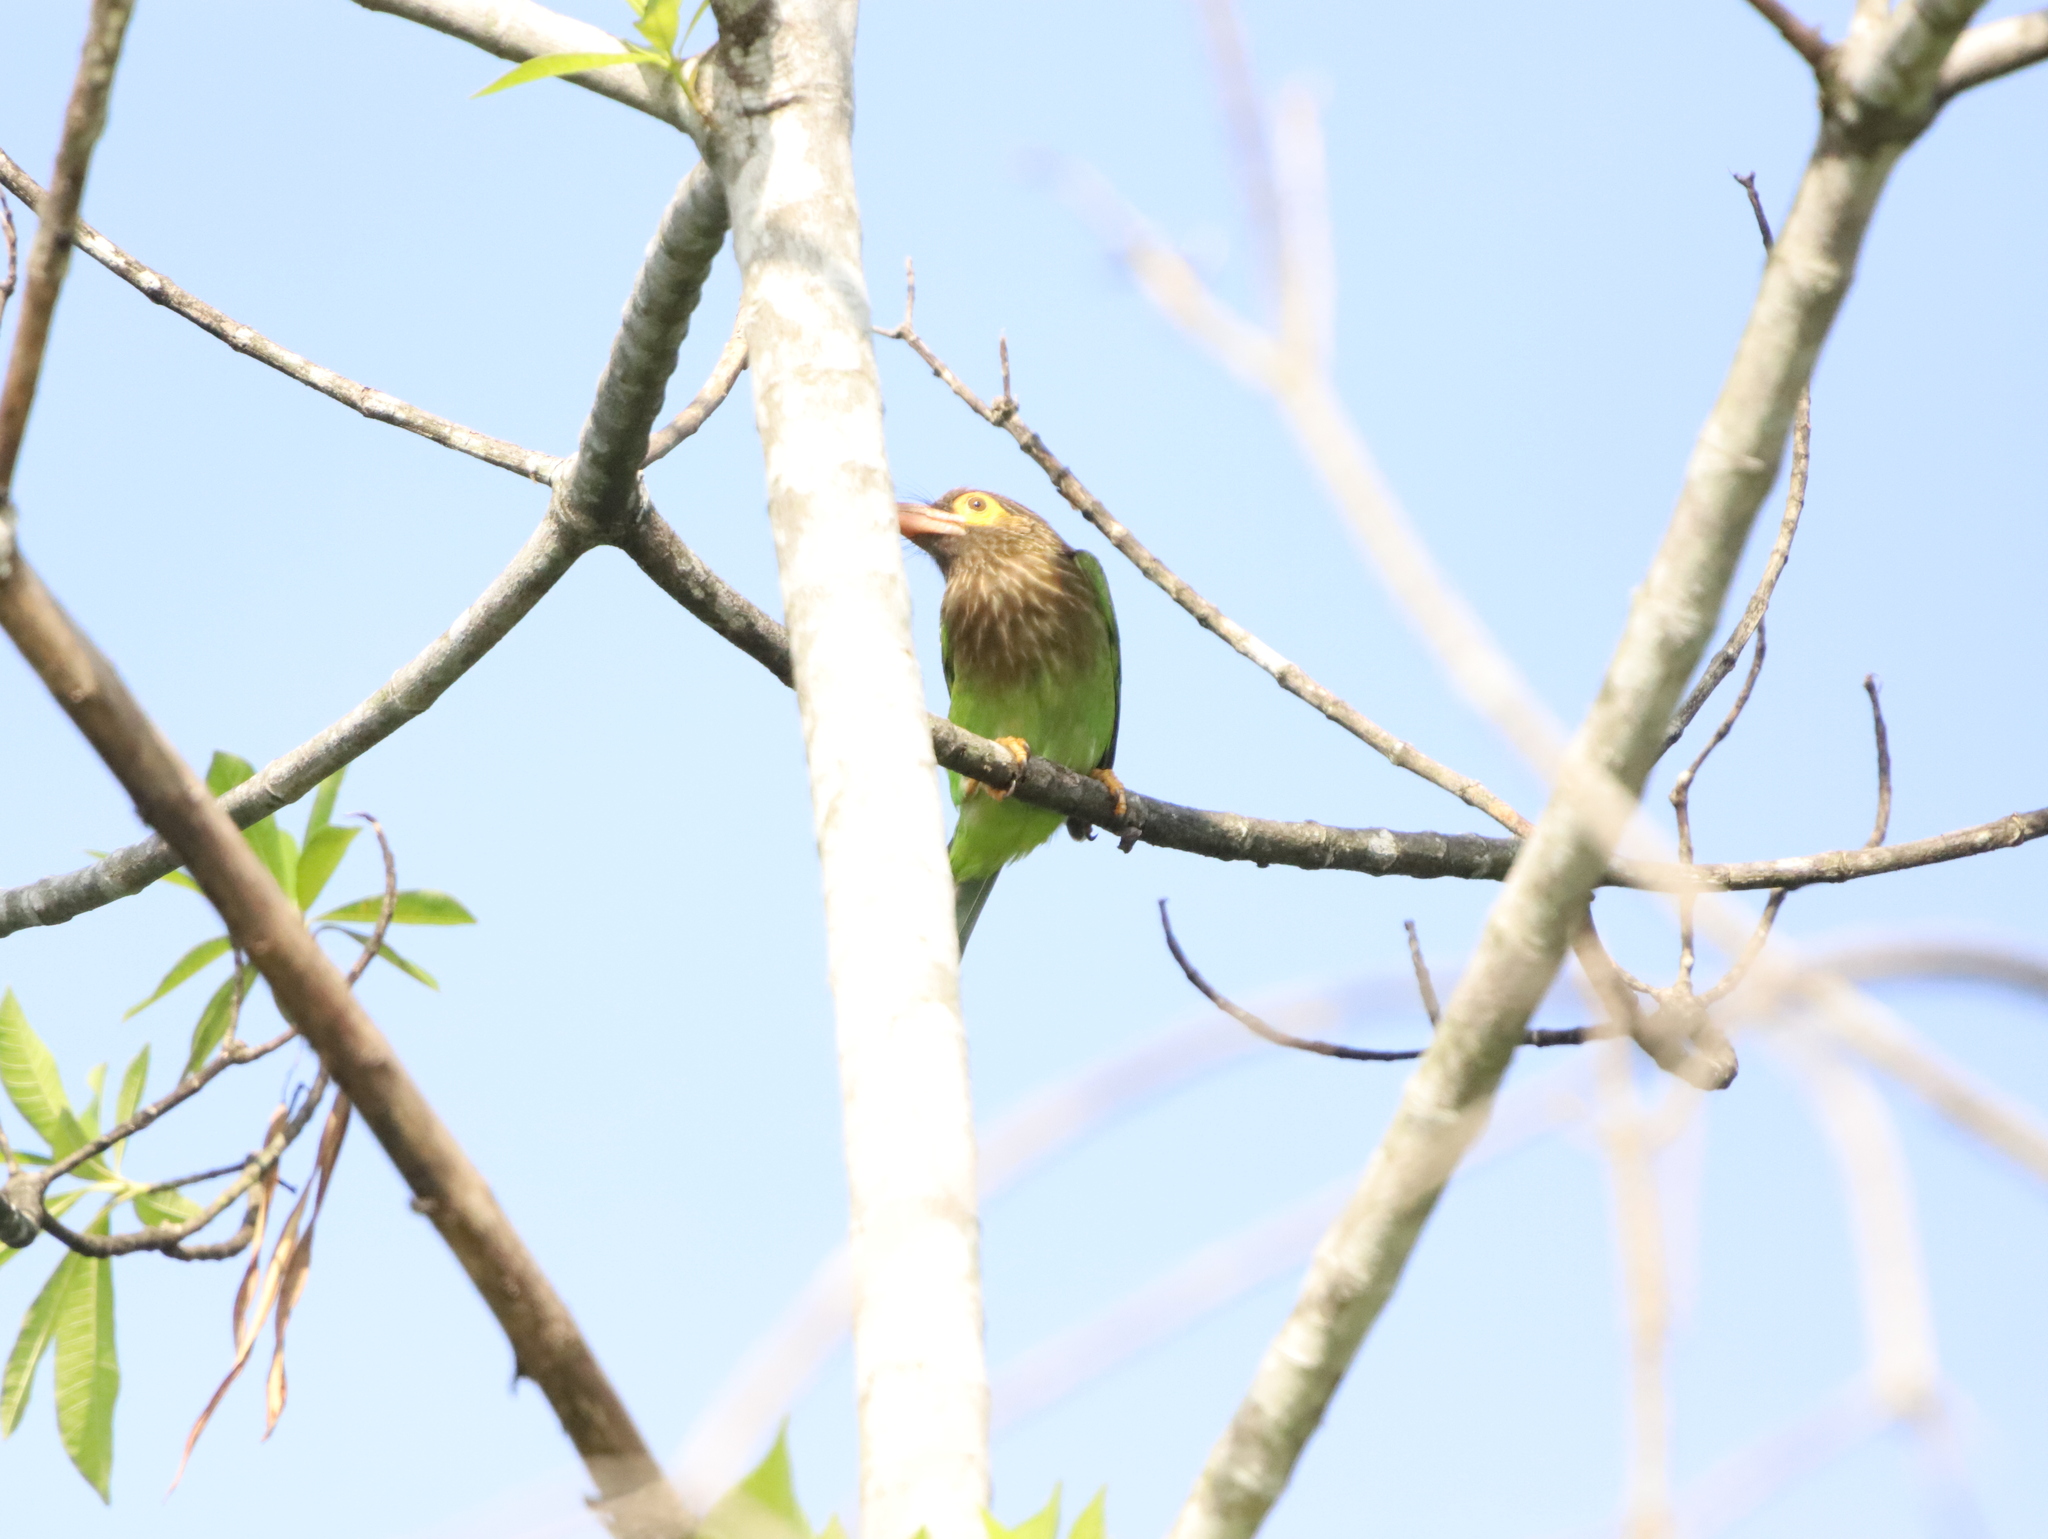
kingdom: Animalia
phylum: Chordata
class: Aves
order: Piciformes
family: Megalaimidae
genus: Psilopogon
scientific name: Psilopogon zeylanicus
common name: Brown-headed barbet
